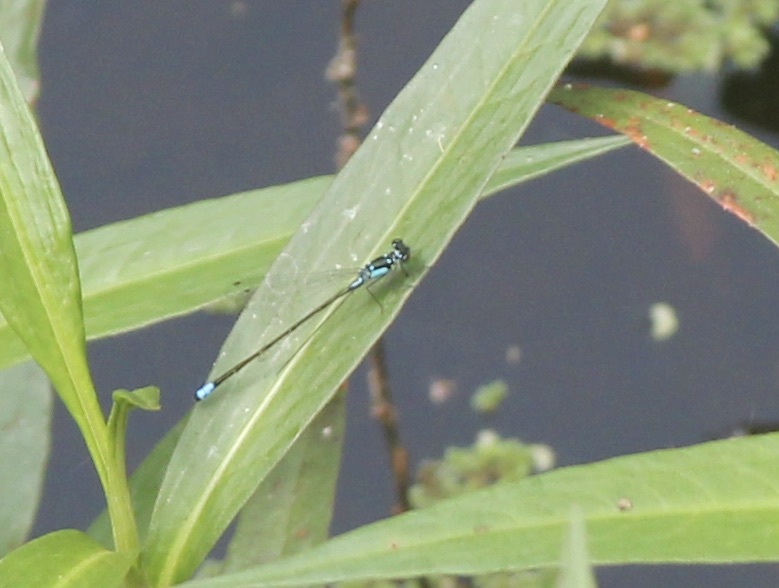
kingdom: Animalia
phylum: Arthropoda
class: Insecta
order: Odonata
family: Coenagrionidae
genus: Ischnura
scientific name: Ischnura cervula
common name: Pacific forktail
